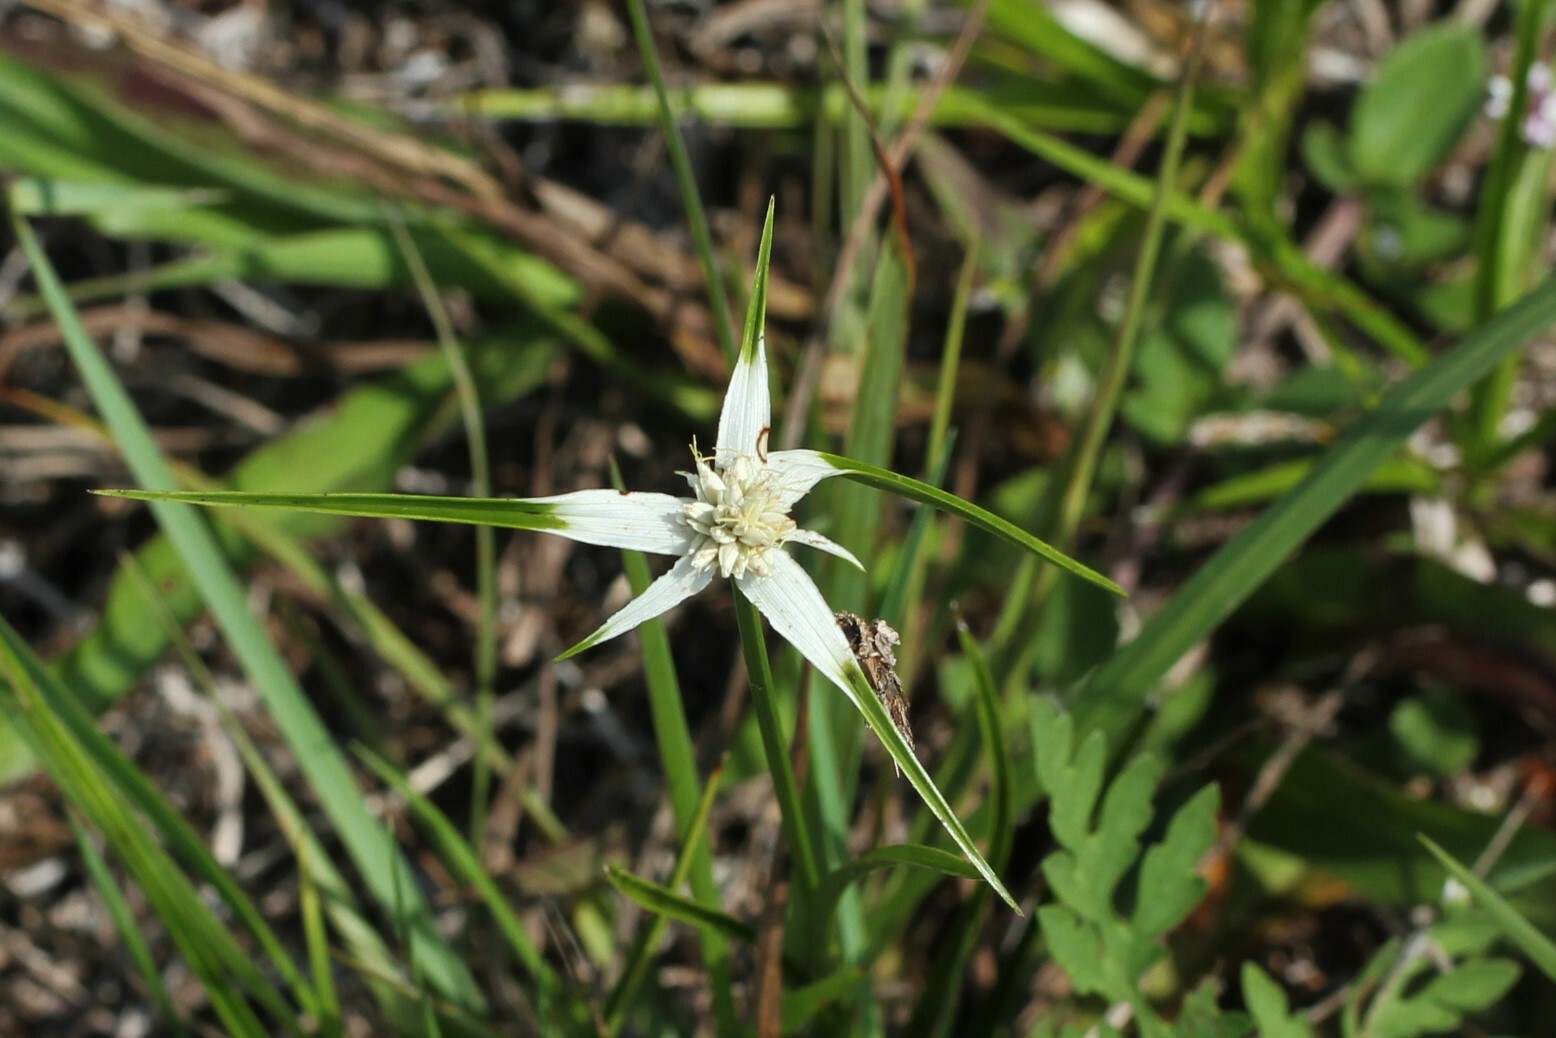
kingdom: Plantae
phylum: Tracheophyta
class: Liliopsida
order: Poales
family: Cyperaceae
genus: Rhynchospora
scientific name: Rhynchospora colorata
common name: Star sedge
